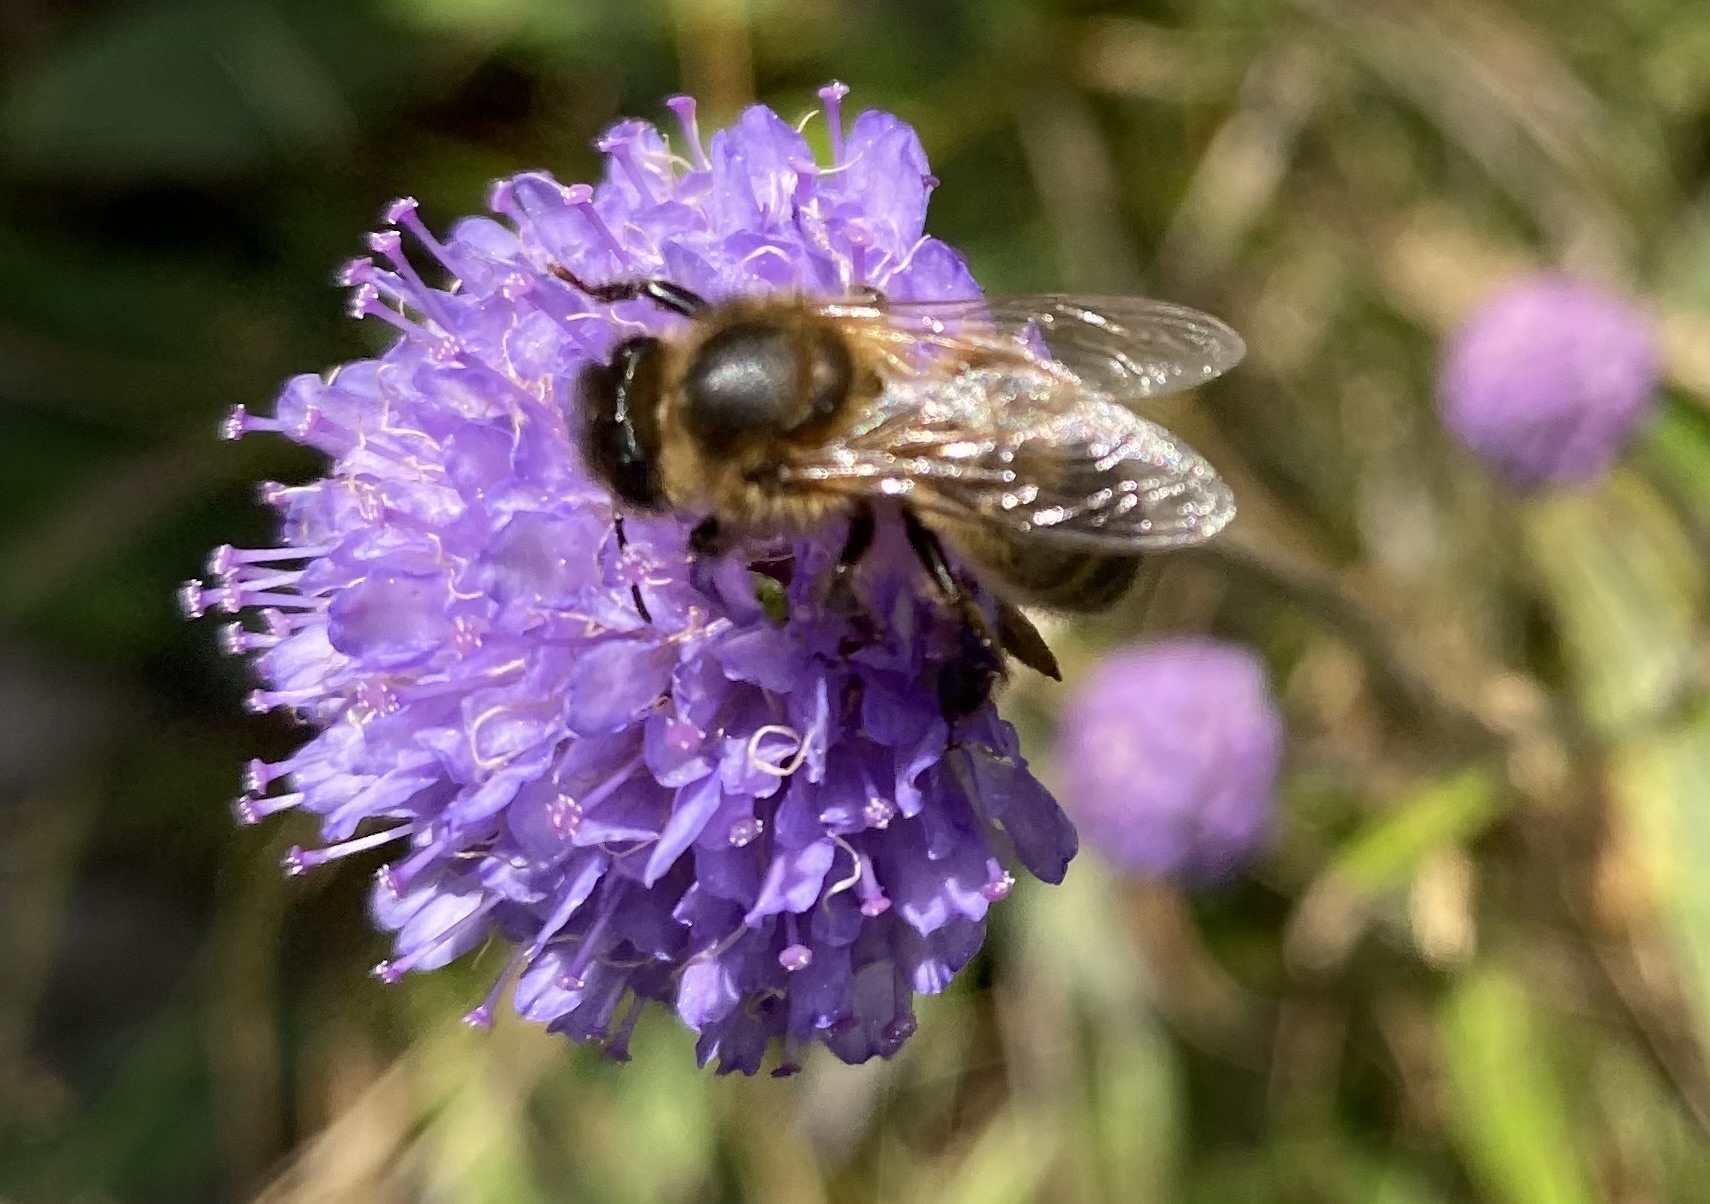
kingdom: Animalia
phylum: Arthropoda
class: Insecta
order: Hymenoptera
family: Apidae
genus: Apis
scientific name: Apis mellifera
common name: Honey bee
